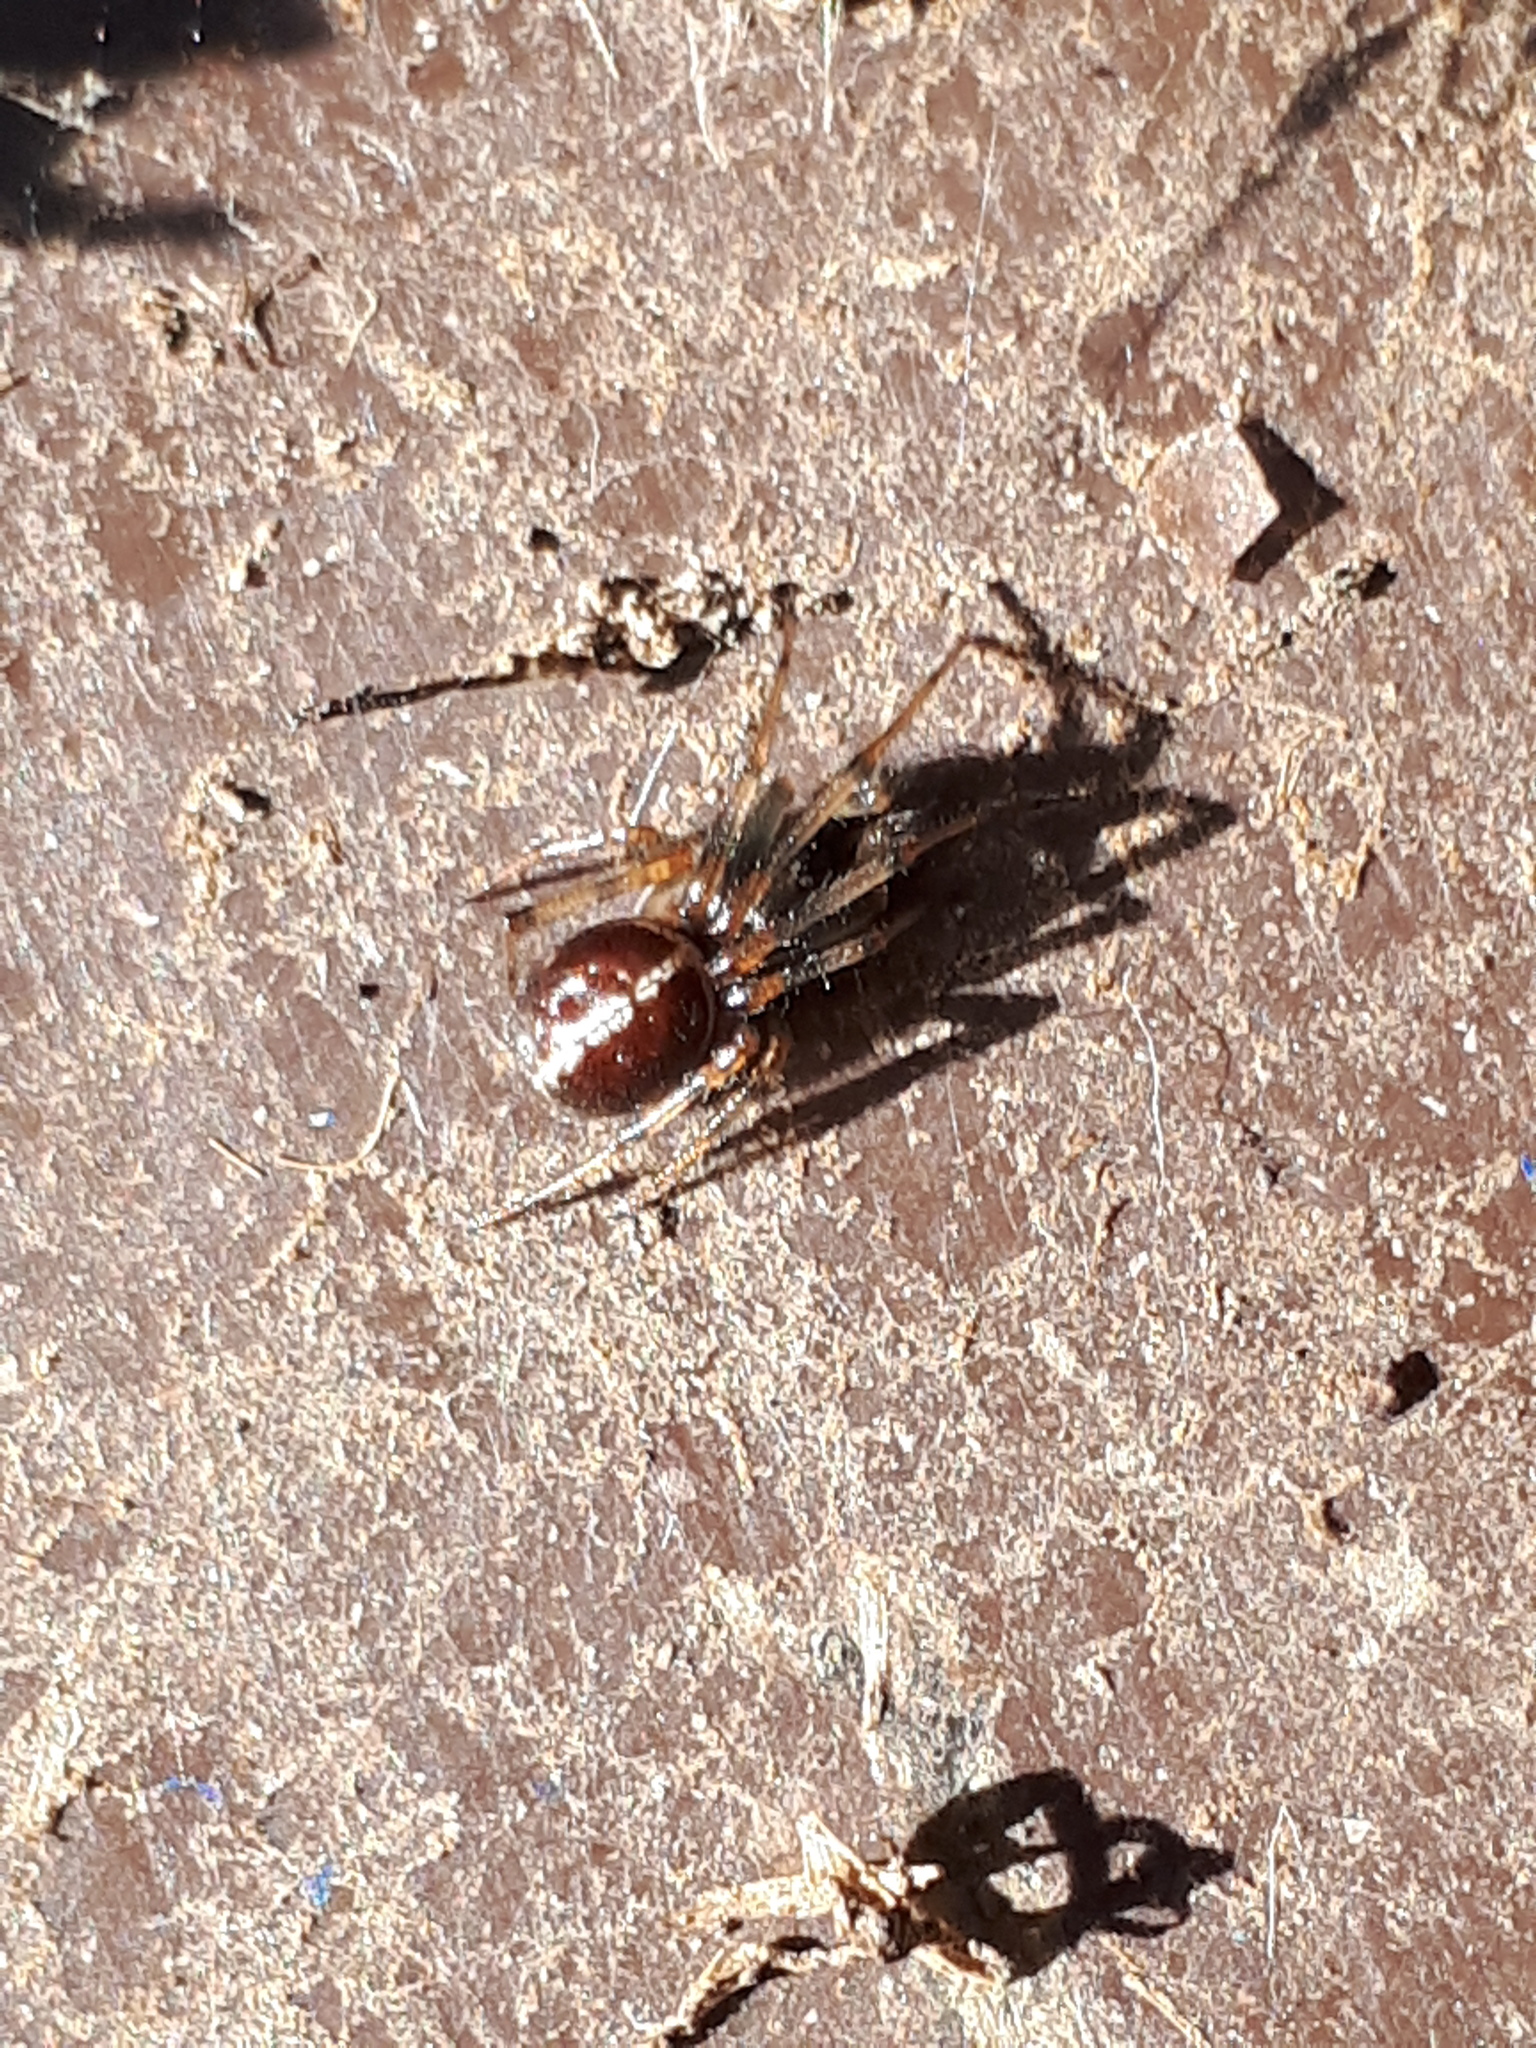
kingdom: Animalia
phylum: Arthropoda
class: Arachnida
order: Araneae
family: Theridiidae
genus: Steatoda
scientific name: Steatoda bipunctata
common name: False widow
